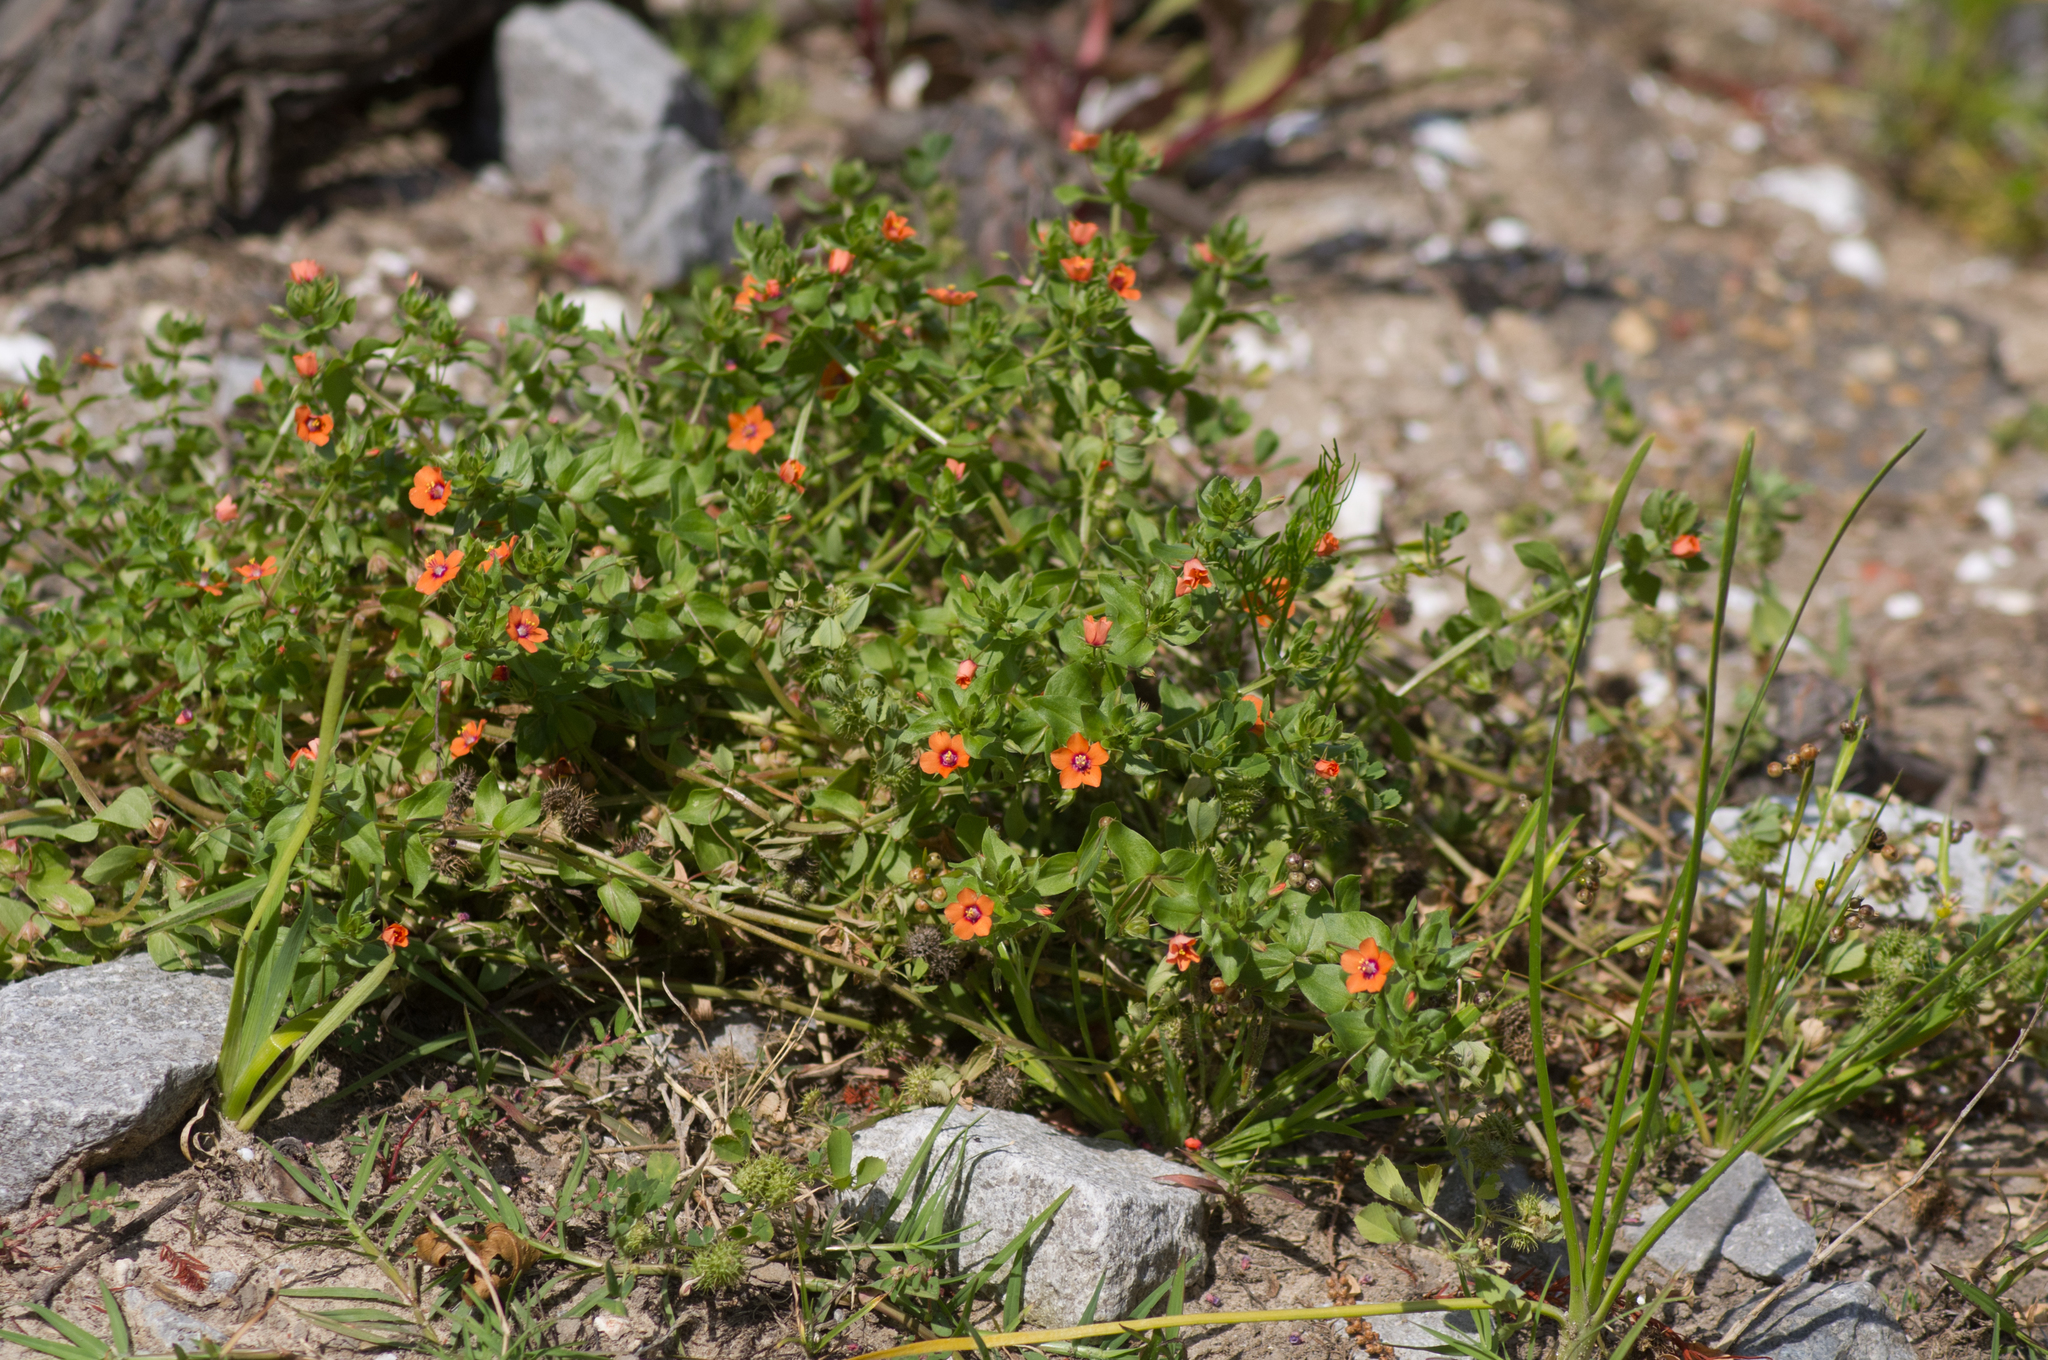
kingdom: Plantae
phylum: Tracheophyta
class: Magnoliopsida
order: Ericales
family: Primulaceae
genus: Lysimachia
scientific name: Lysimachia arvensis
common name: Scarlet pimpernel
